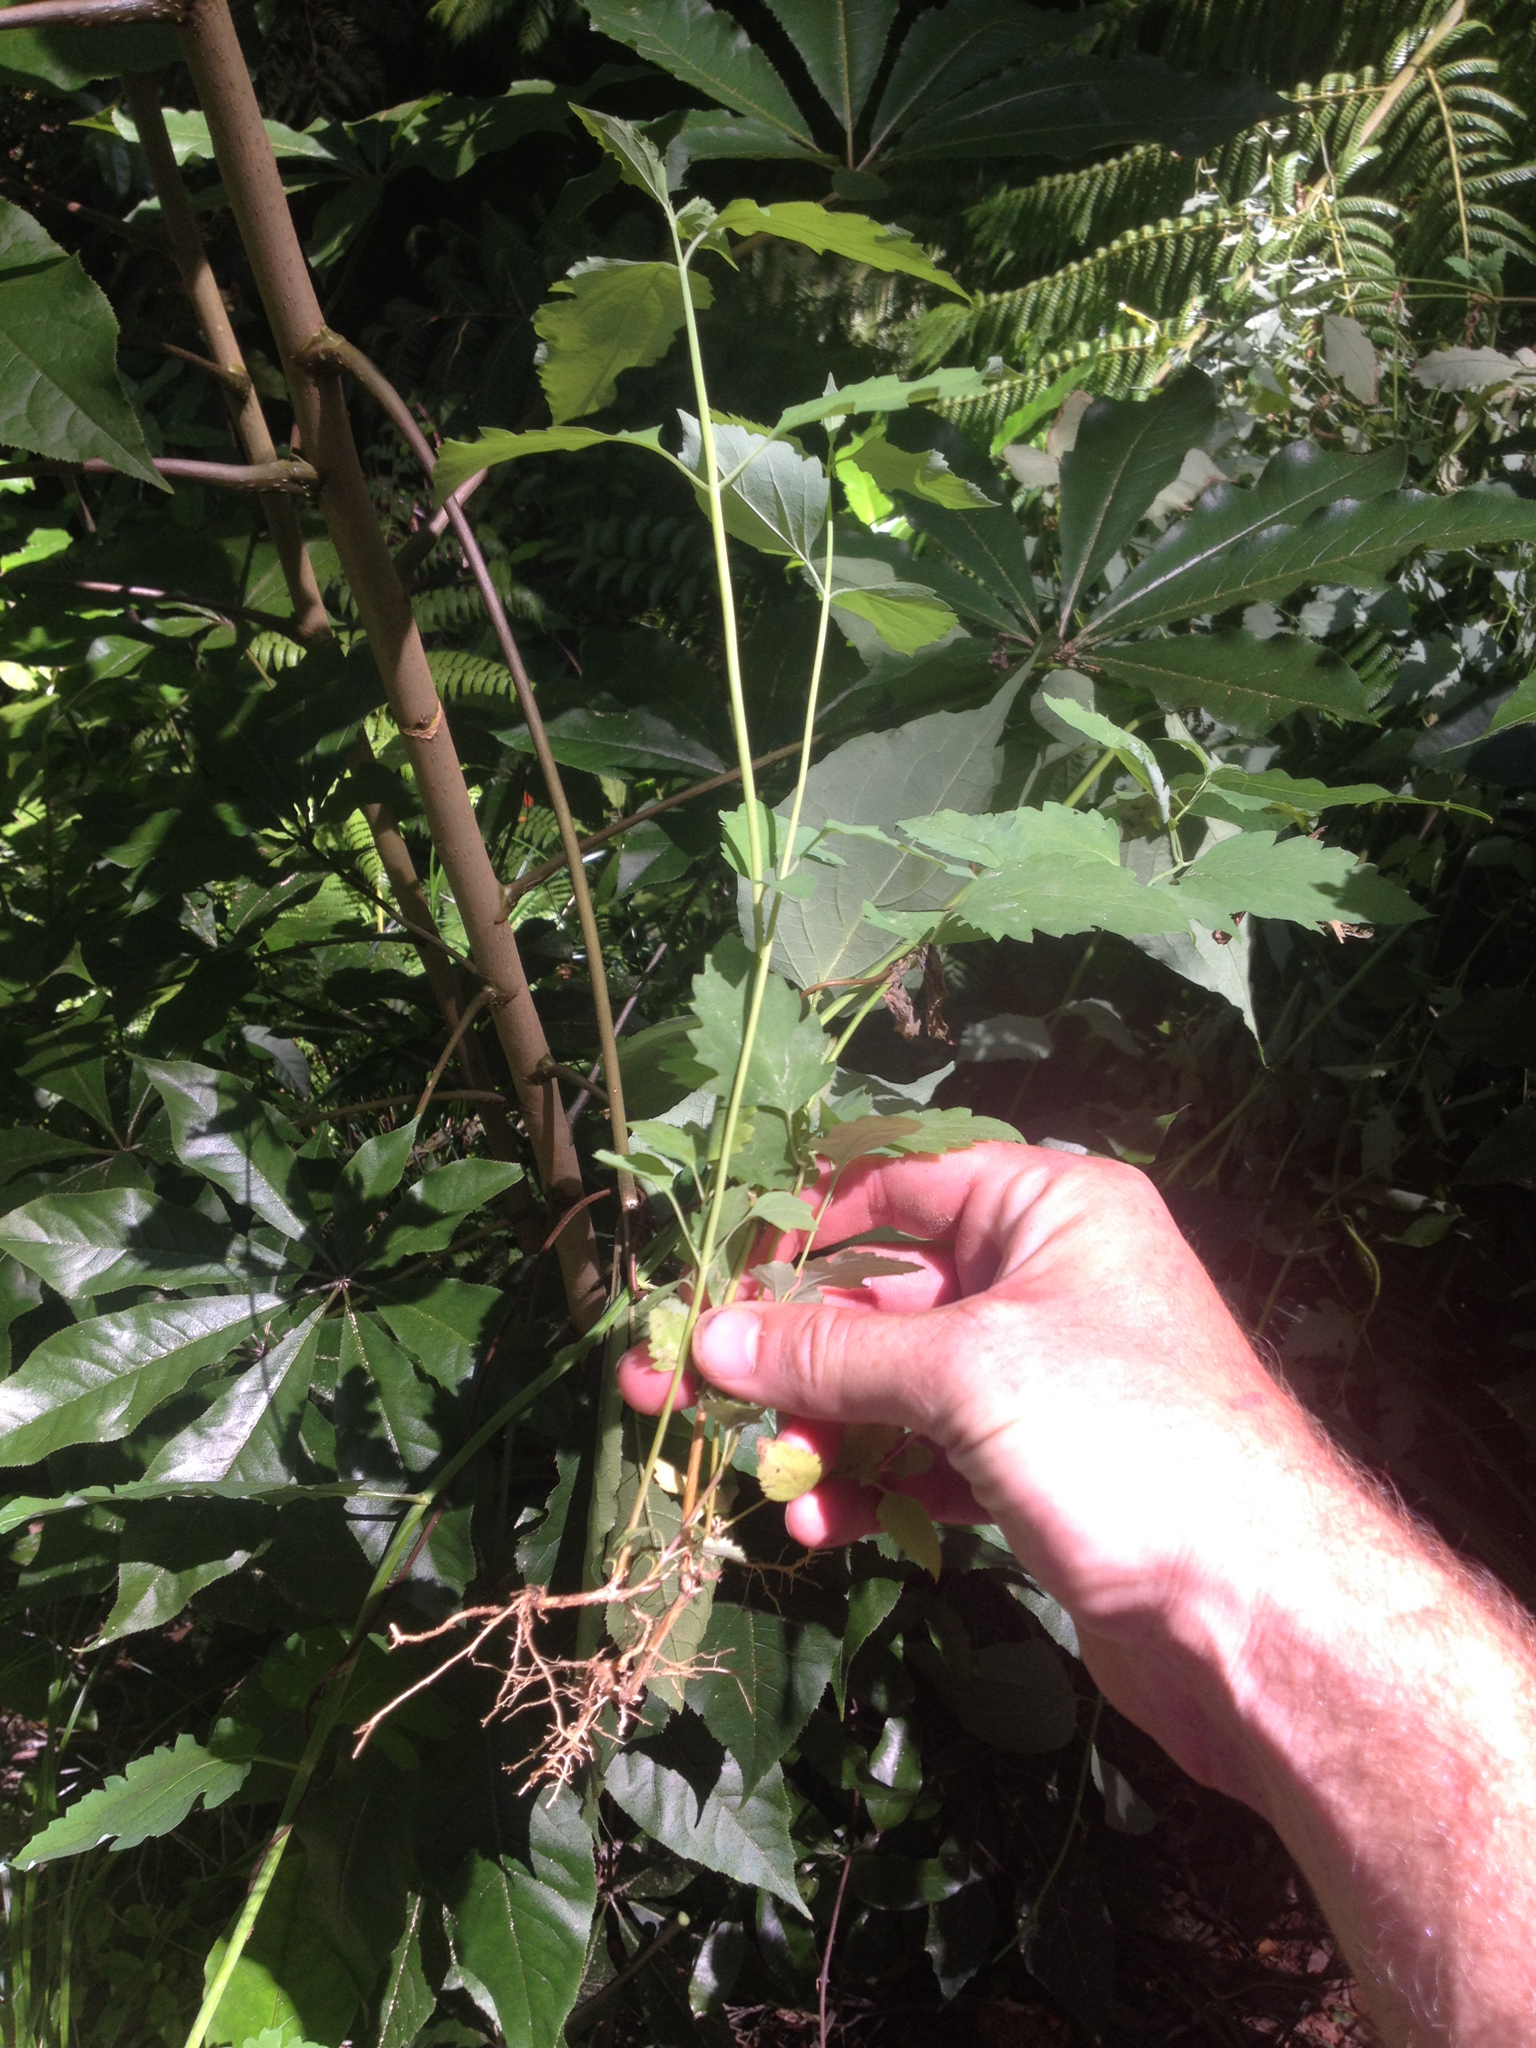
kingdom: Plantae
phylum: Tracheophyta
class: Magnoliopsida
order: Dipsacales
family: Caprifoliaceae
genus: Leycesteria
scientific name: Leycesteria formosa
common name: Himalayan honeysuckle
